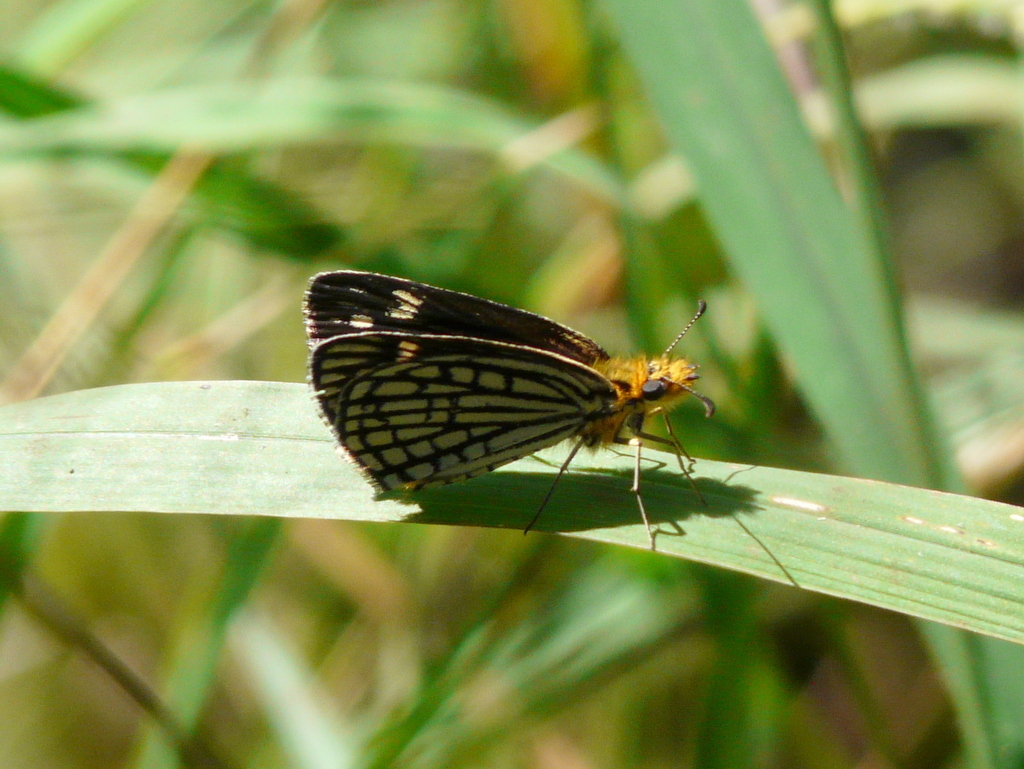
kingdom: Animalia
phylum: Arthropoda
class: Insecta
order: Lepidoptera
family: Hesperiidae
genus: Willema
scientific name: Willema willemi
